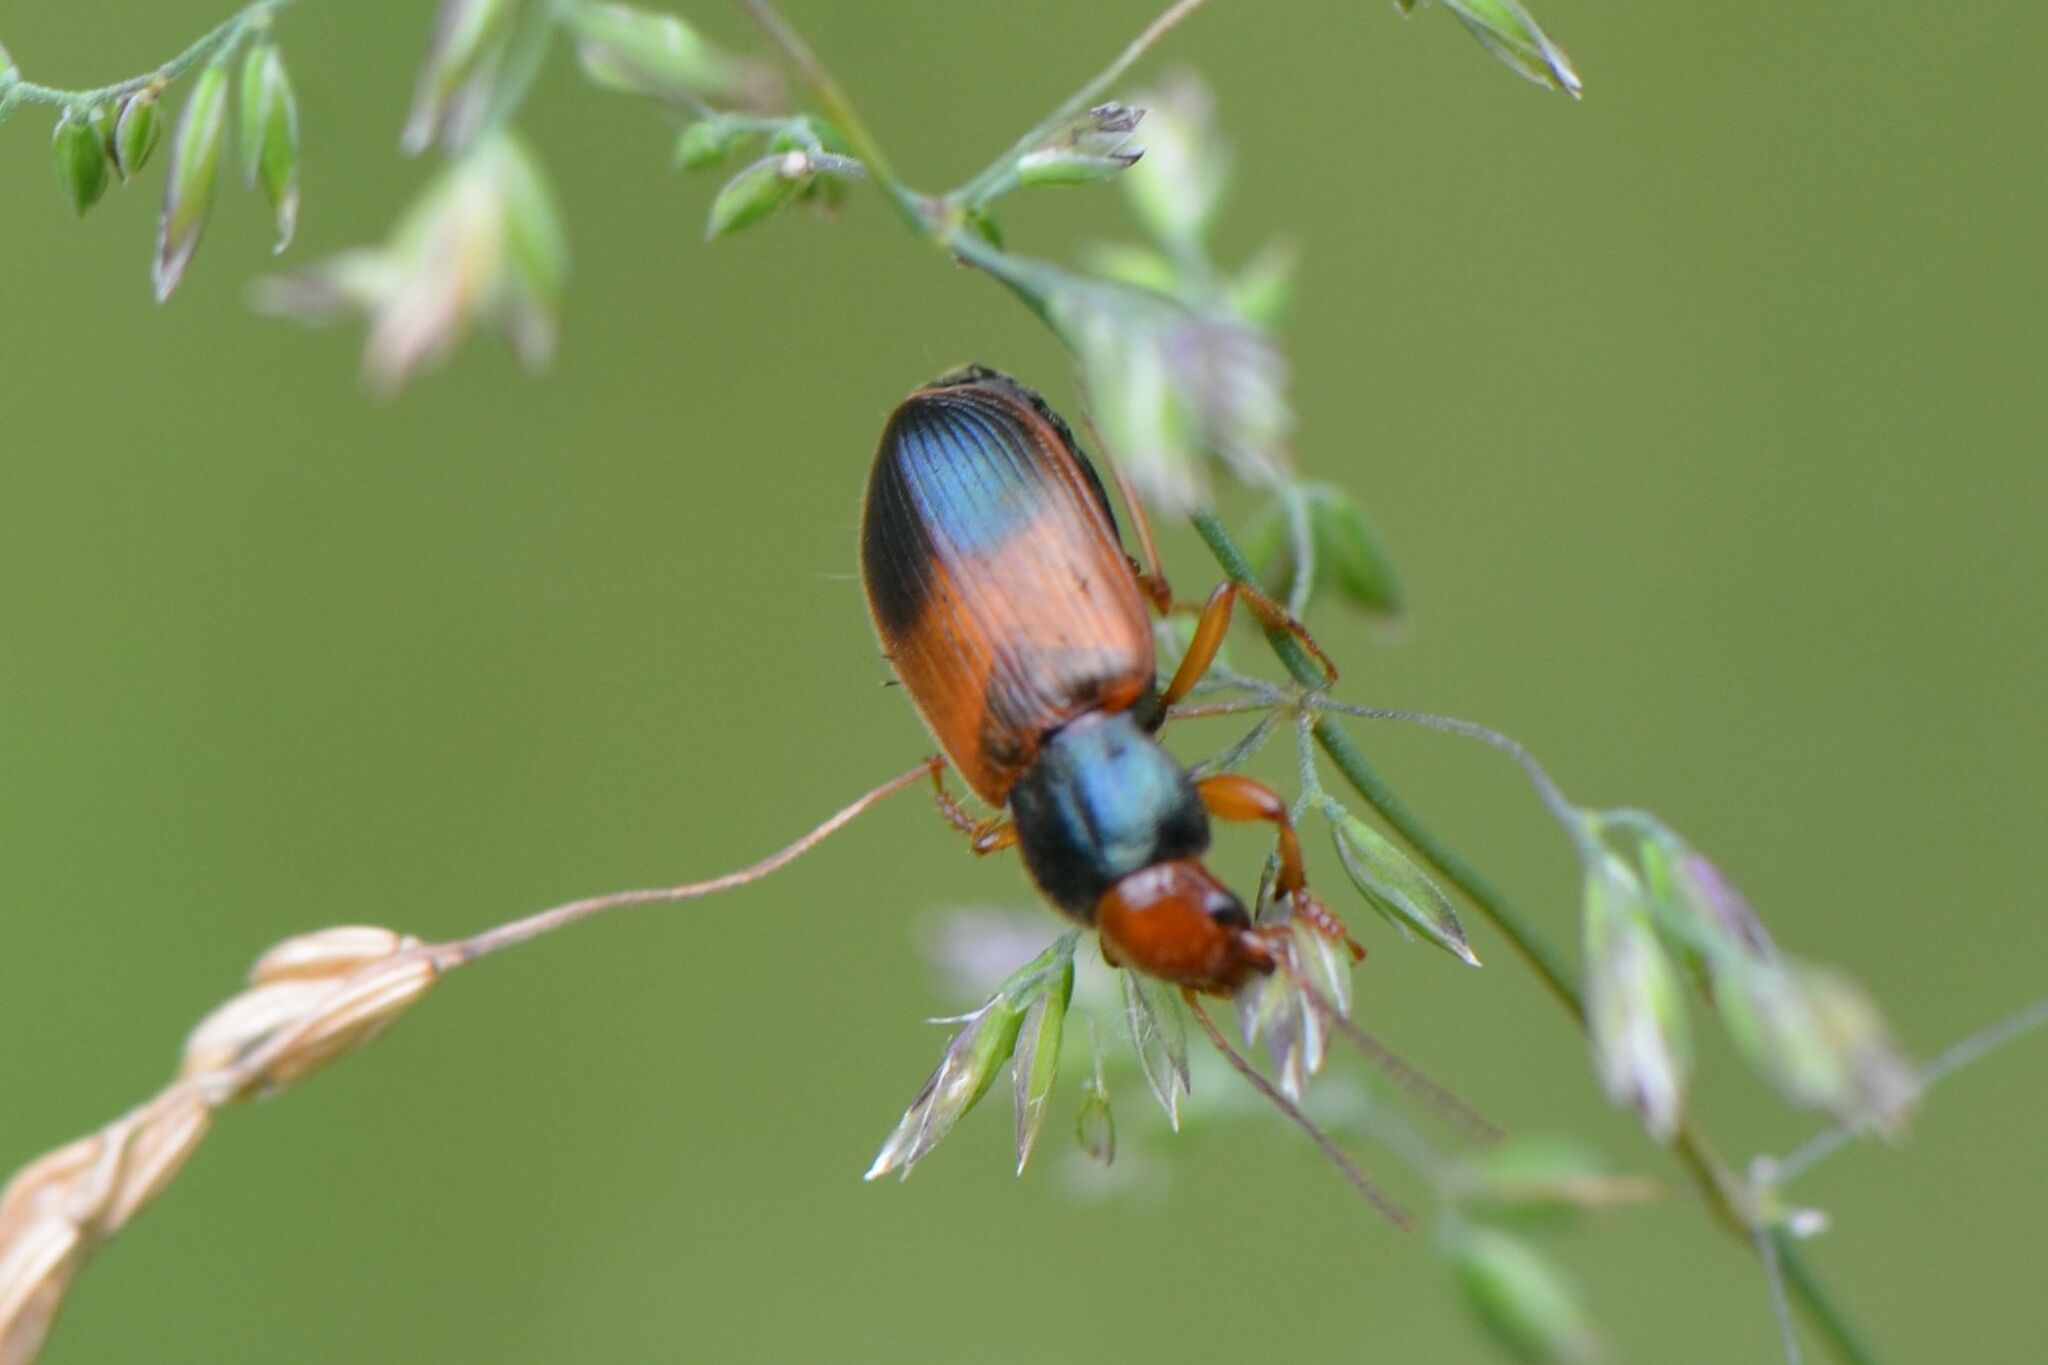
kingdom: Animalia
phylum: Arthropoda
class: Insecta
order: Coleoptera
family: Carabidae
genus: Diachromus
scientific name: Diachromus germanus
